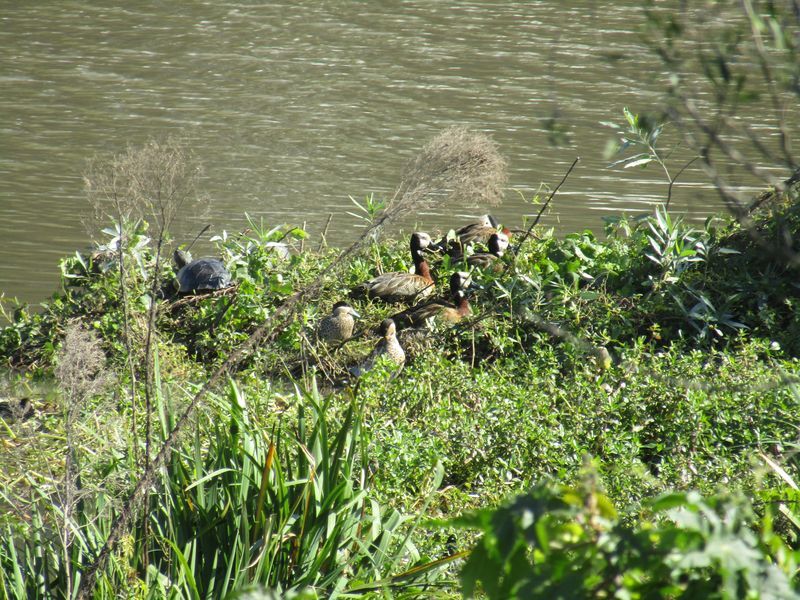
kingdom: Animalia
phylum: Chordata
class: Aves
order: Anseriformes
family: Anatidae
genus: Spatula
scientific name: Spatula versicolor
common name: Silver teal
